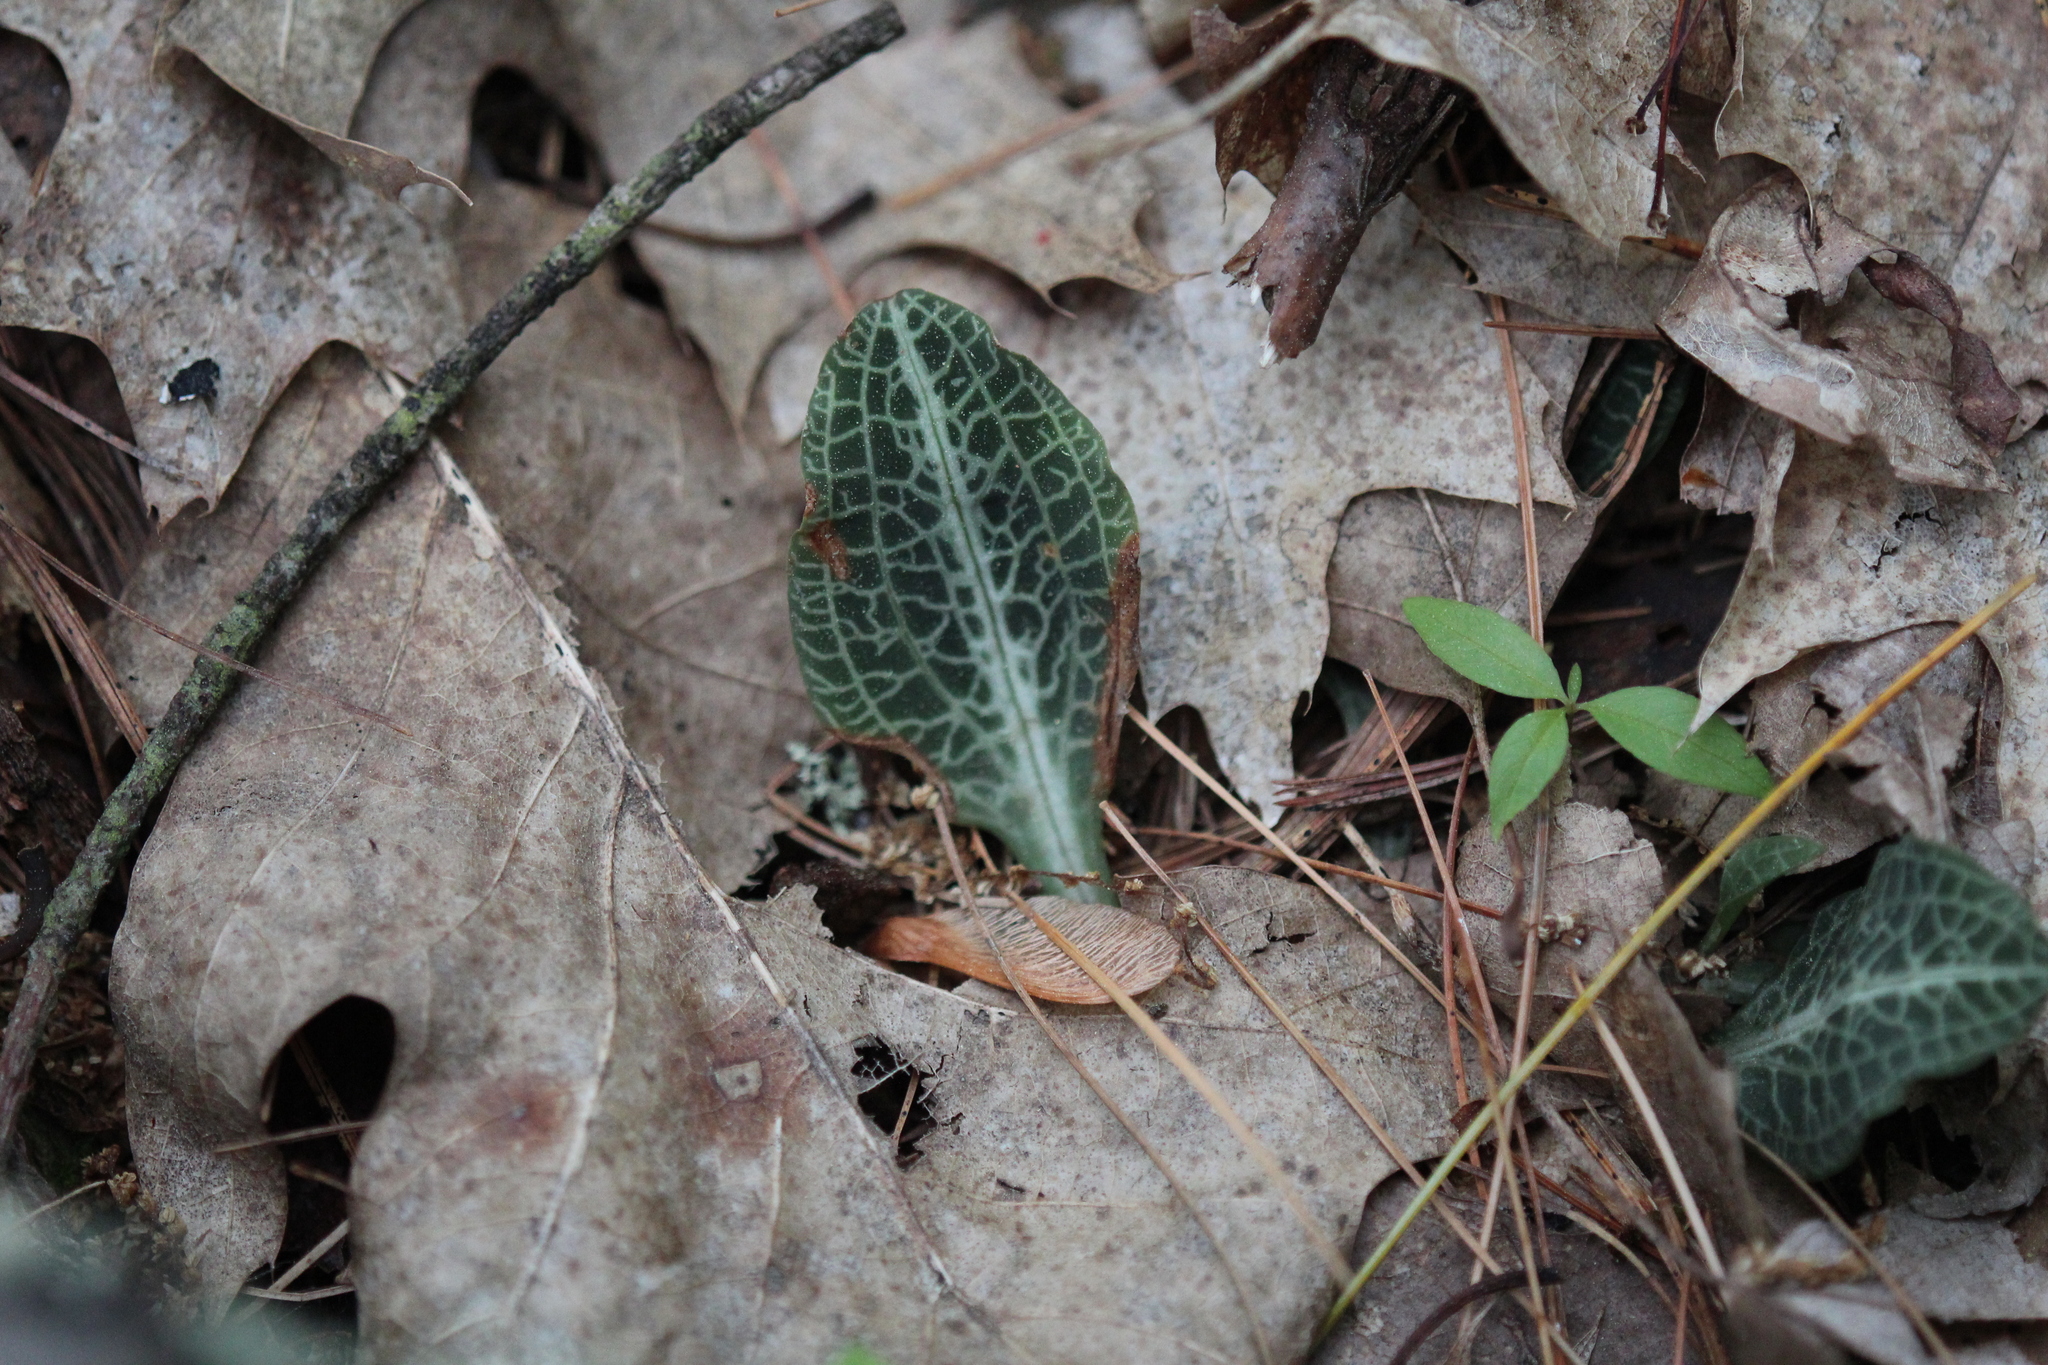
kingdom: Plantae
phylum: Tracheophyta
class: Liliopsida
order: Asparagales
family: Orchidaceae
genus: Goodyera
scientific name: Goodyera pubescens
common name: Downy rattlesnake-plantain
